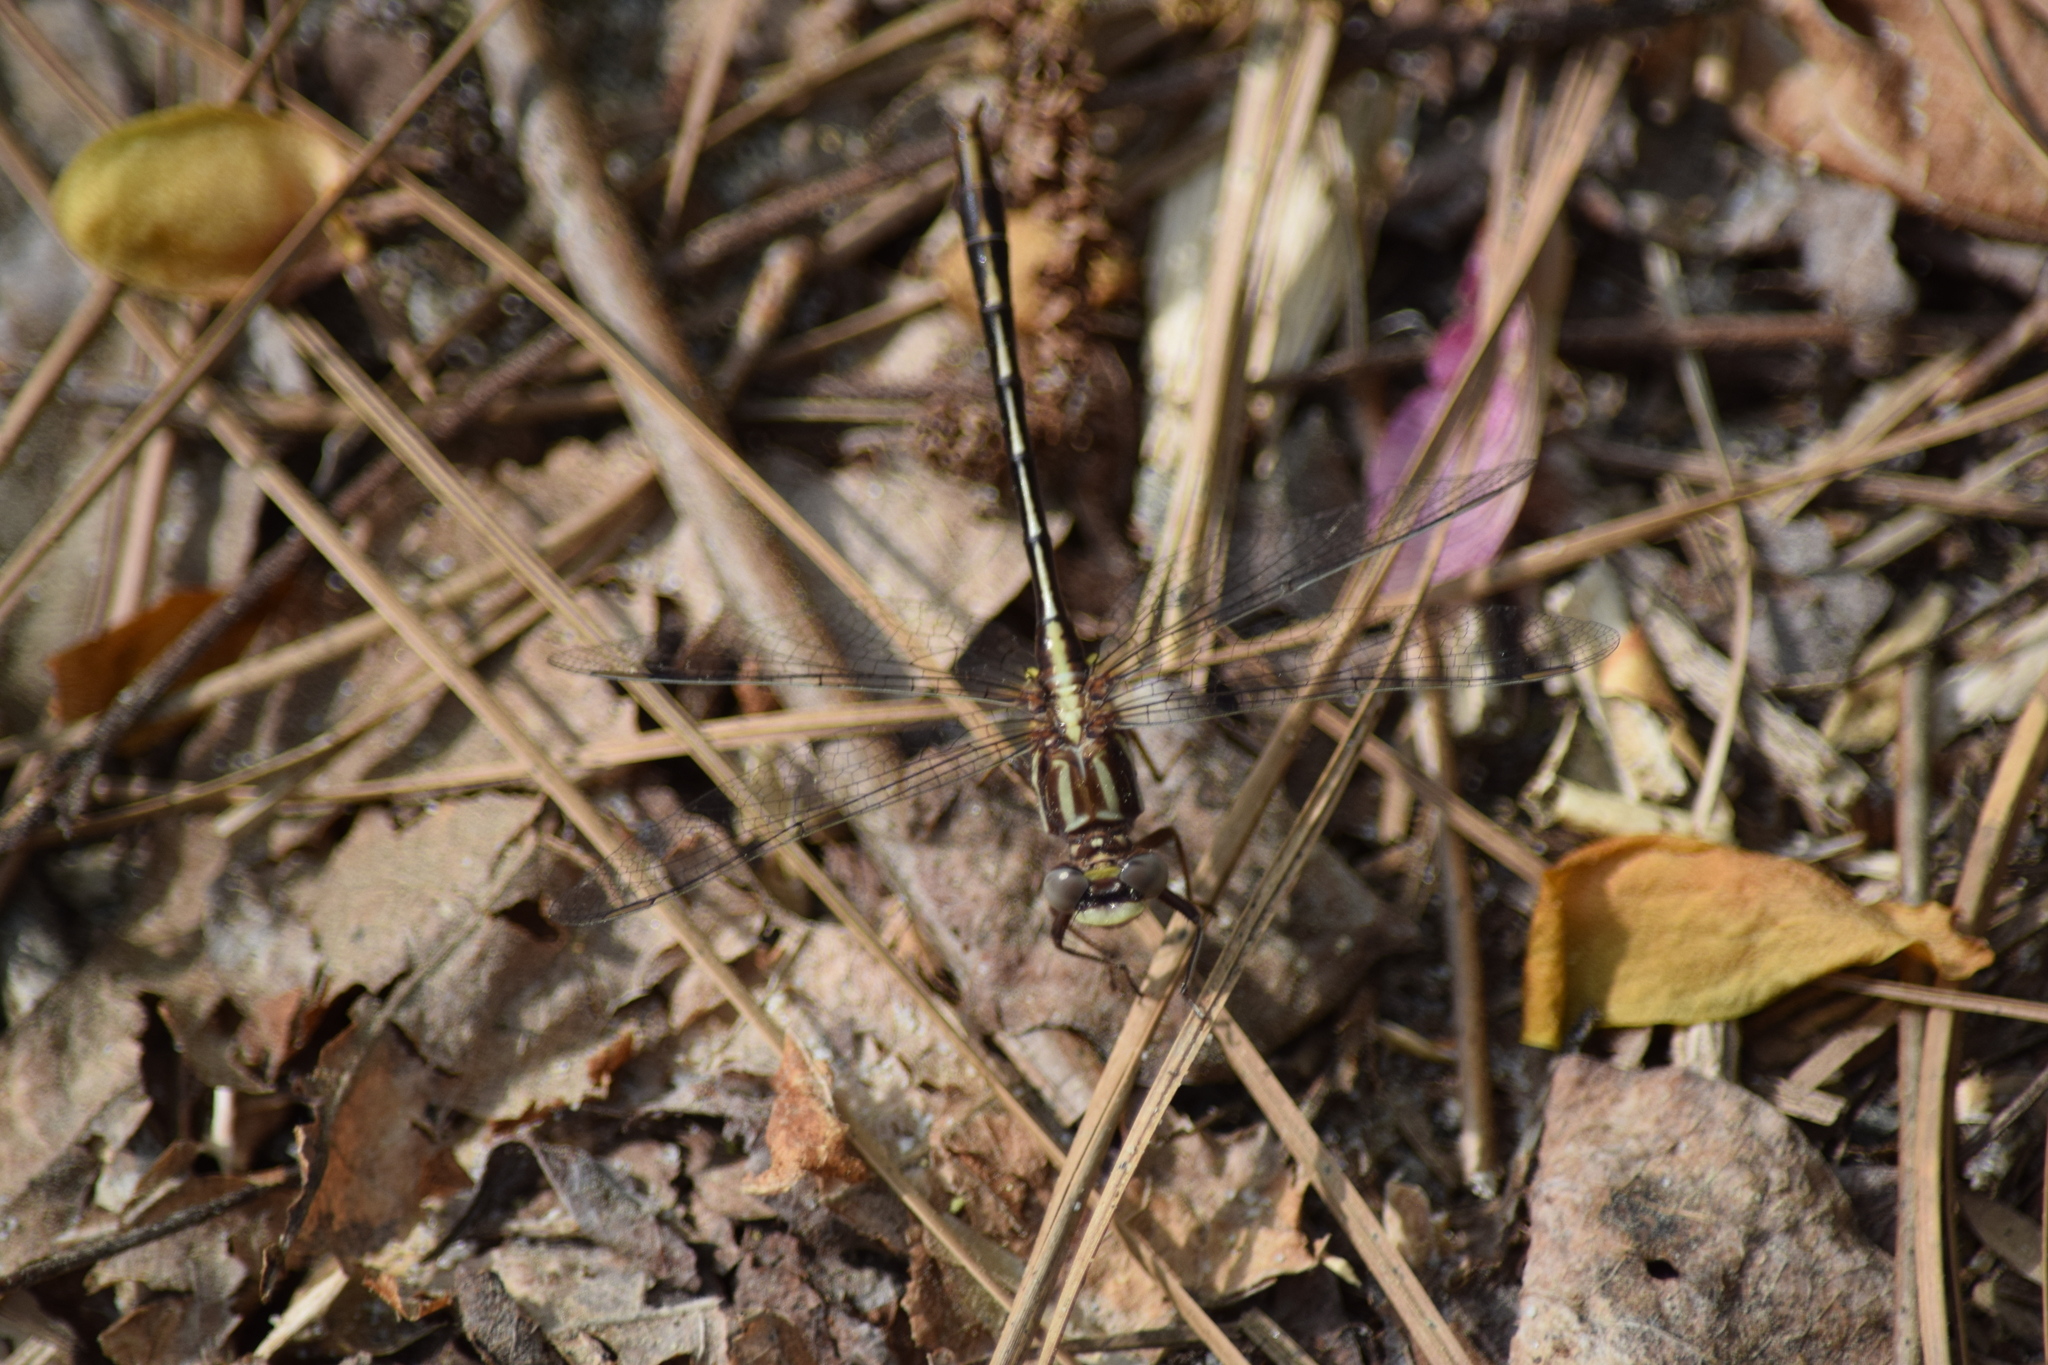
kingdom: Animalia
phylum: Arthropoda
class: Insecta
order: Odonata
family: Gomphidae
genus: Phanogomphus
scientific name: Phanogomphus lividus
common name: Ashy clubtail
